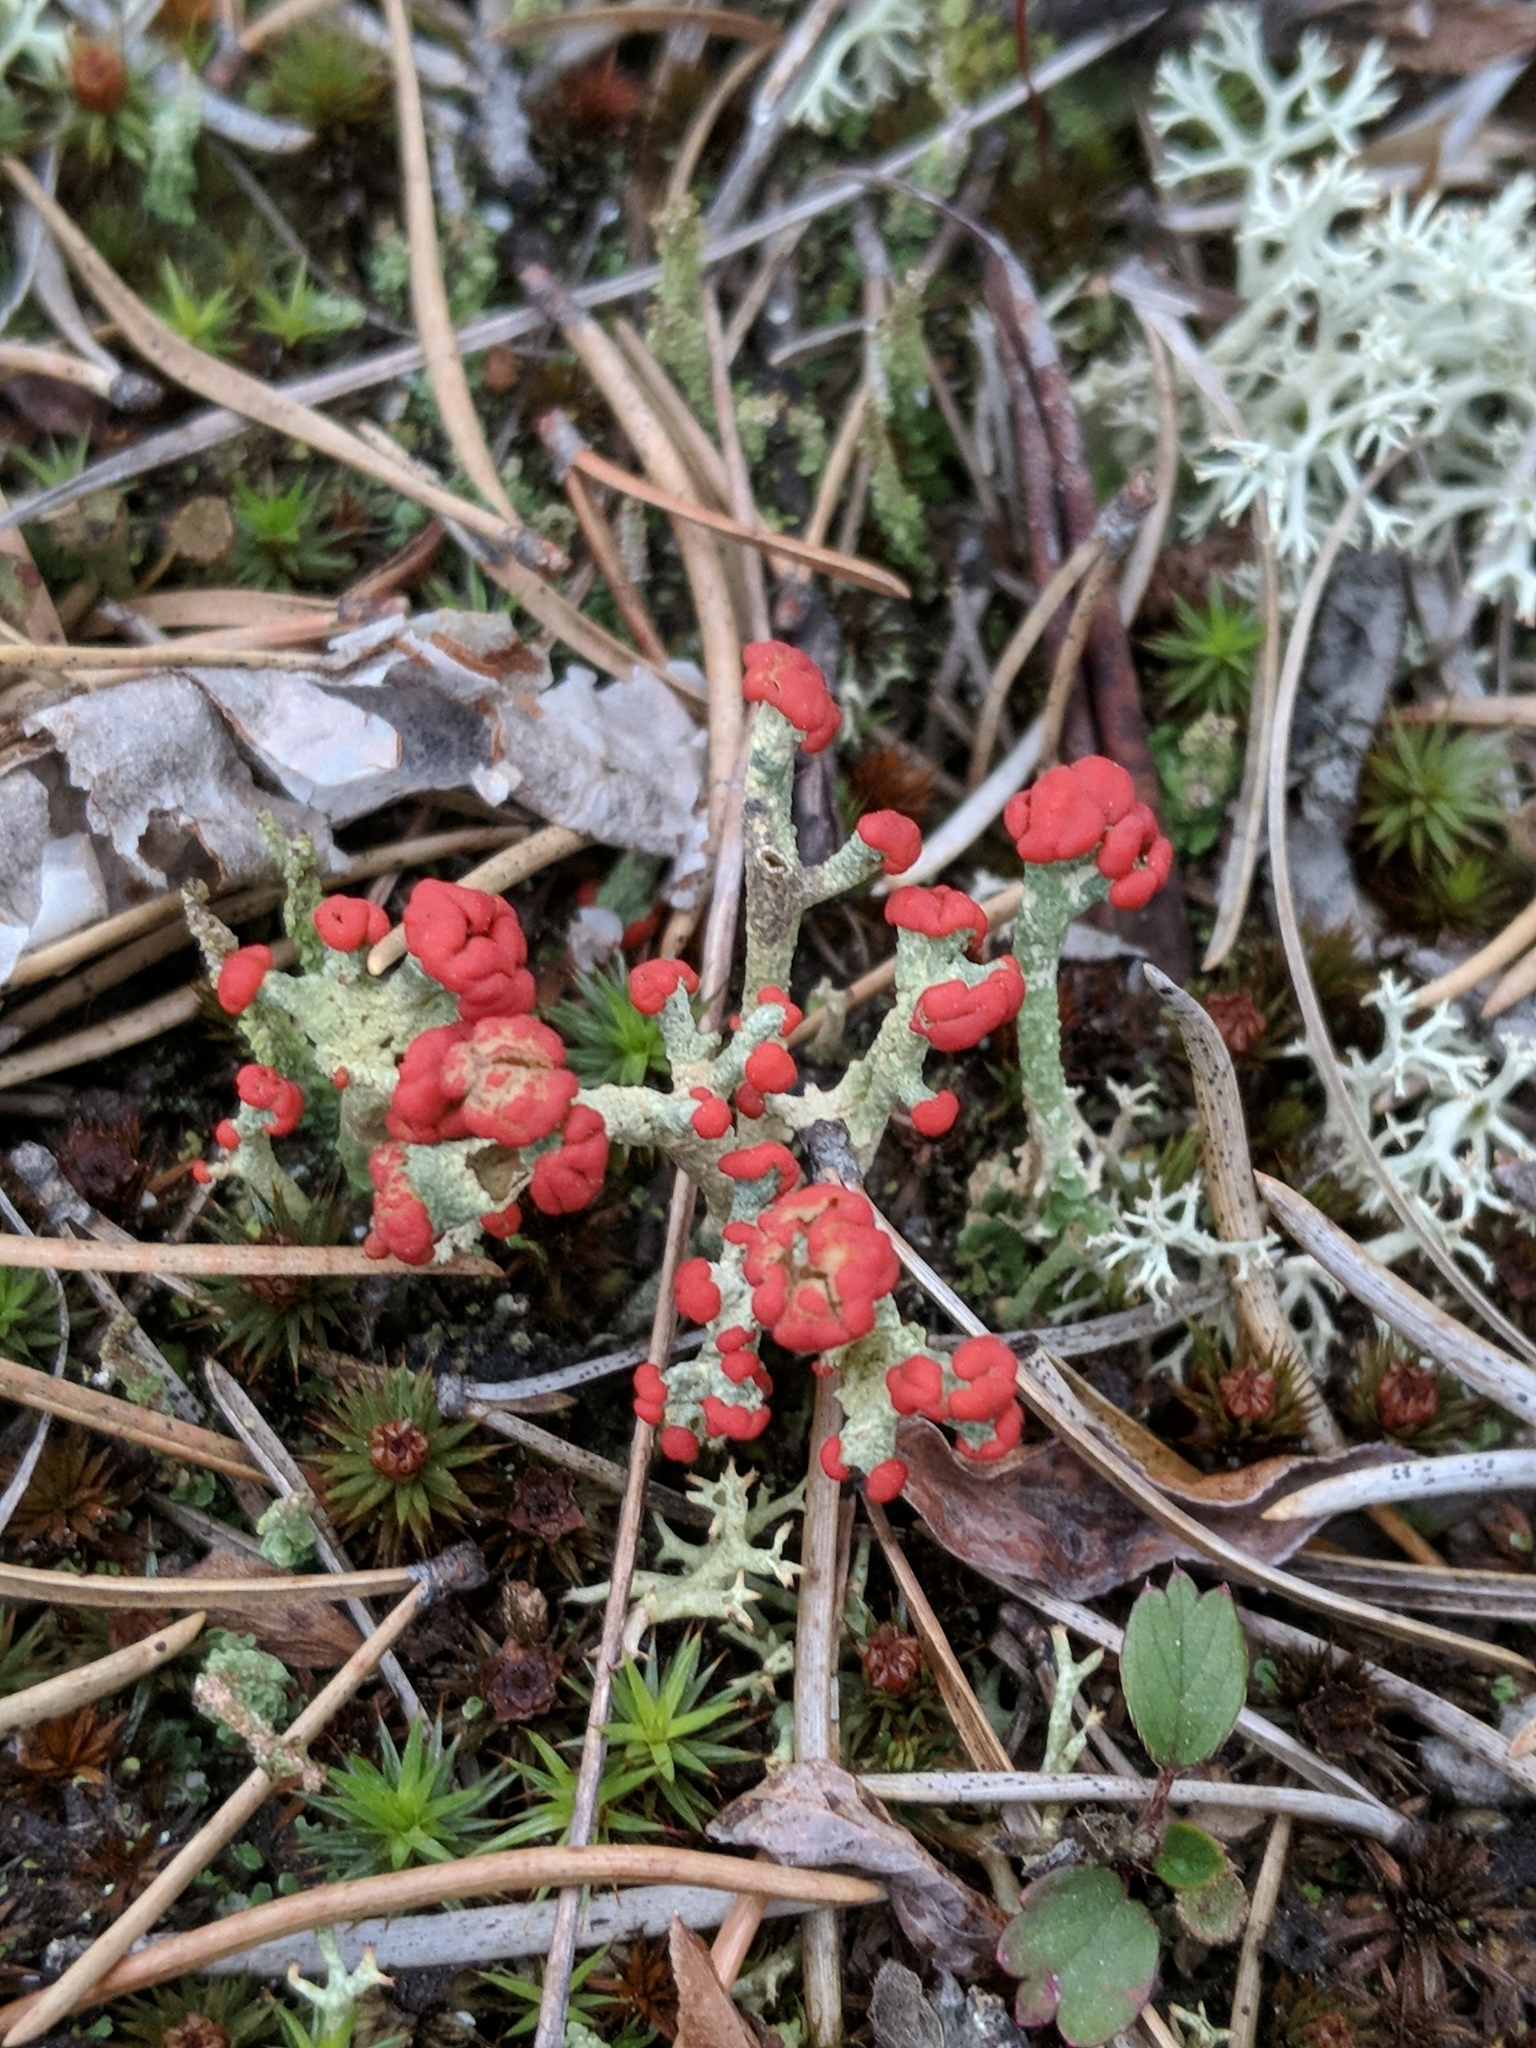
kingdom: Fungi
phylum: Ascomycota
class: Lecanoromycetes
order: Lecanorales
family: Cladoniaceae
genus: Cladonia
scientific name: Cladonia cristatella
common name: British soldier lichen
